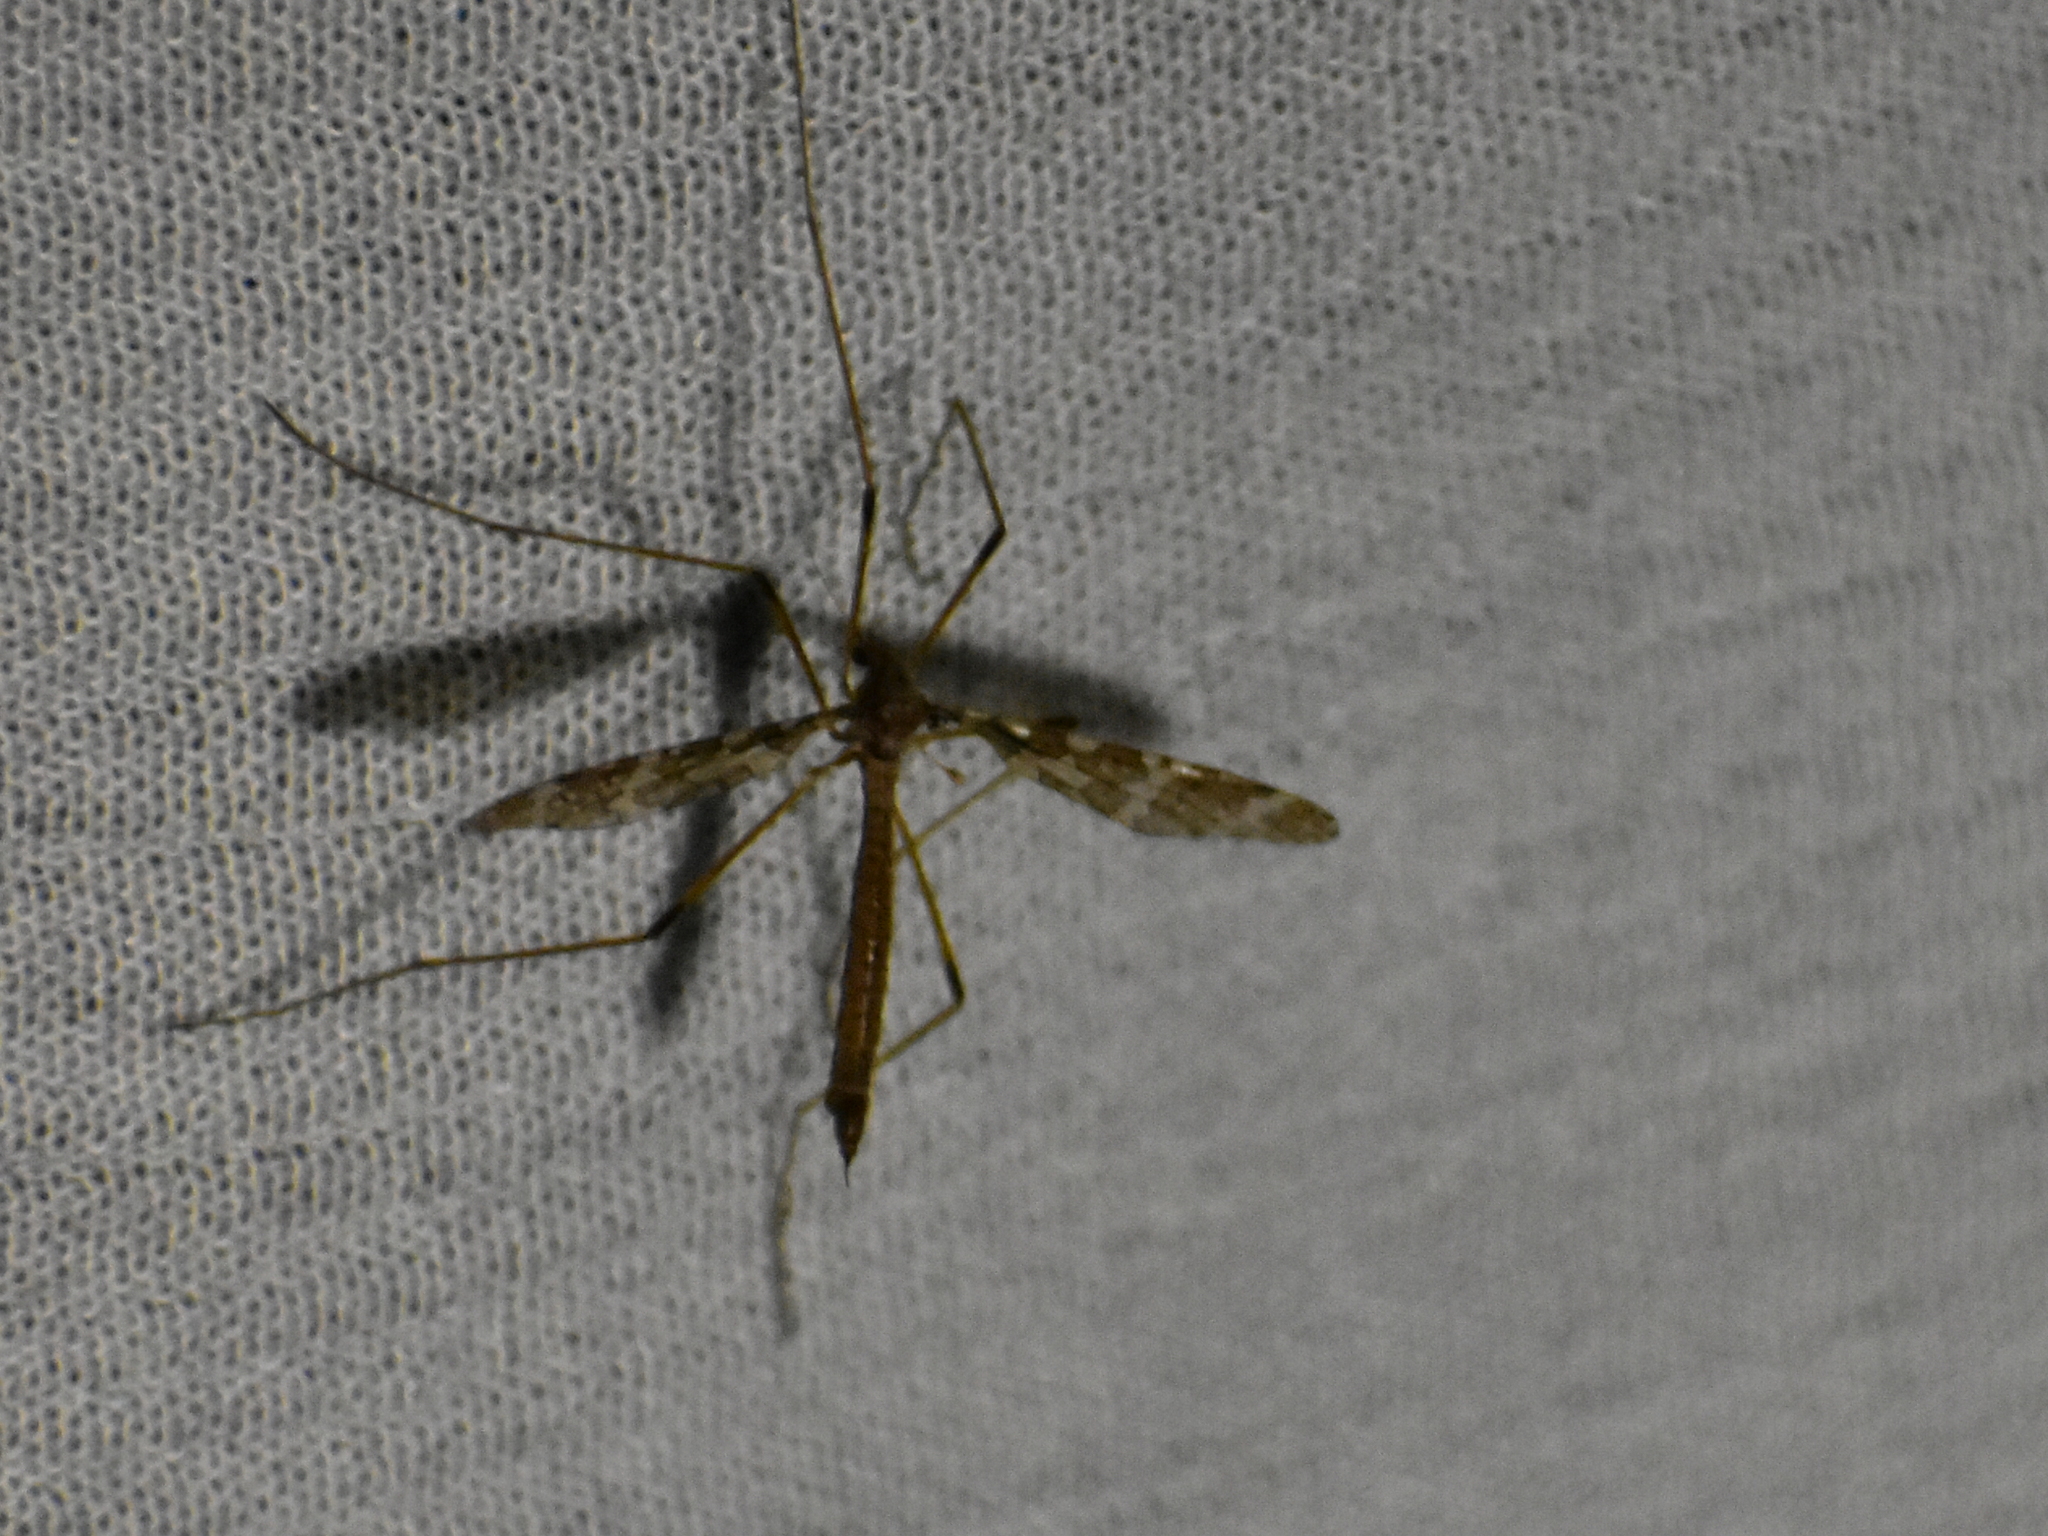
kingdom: Animalia
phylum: Arthropoda
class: Insecta
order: Diptera
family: Limoniidae
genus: Epiphragma
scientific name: Epiphragma fasciapenne
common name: Band-winged crane fly
